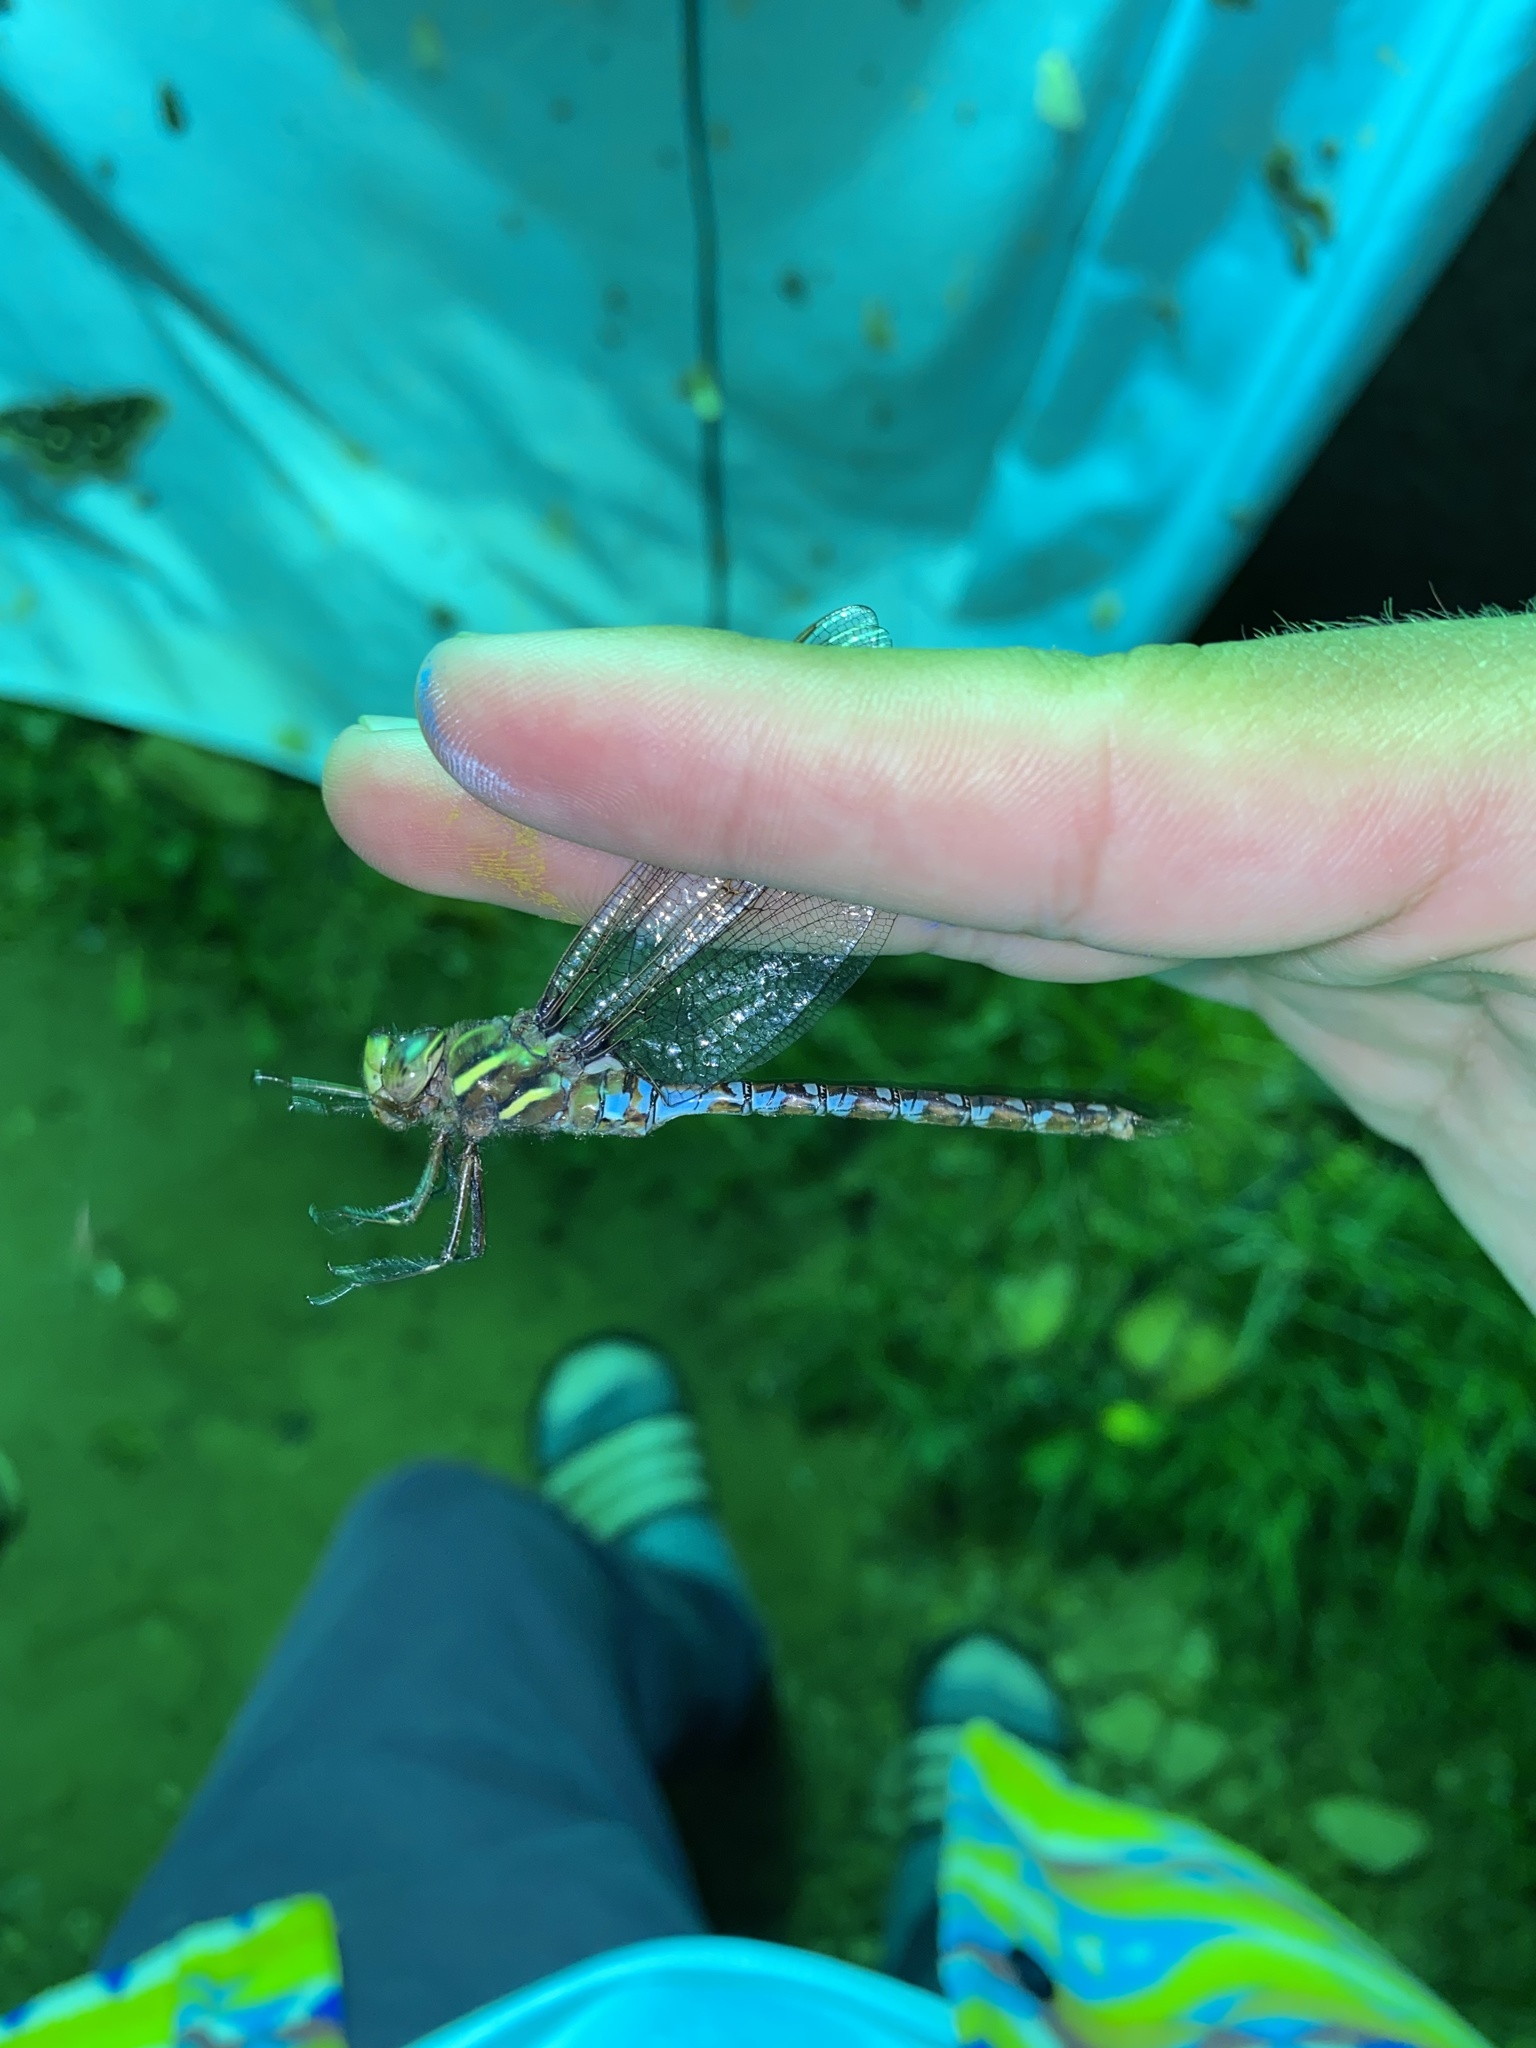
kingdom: Animalia
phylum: Arthropoda
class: Insecta
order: Odonata
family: Aeshnidae
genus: Basiaeschna
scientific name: Basiaeschna janata
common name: Springtime darner
